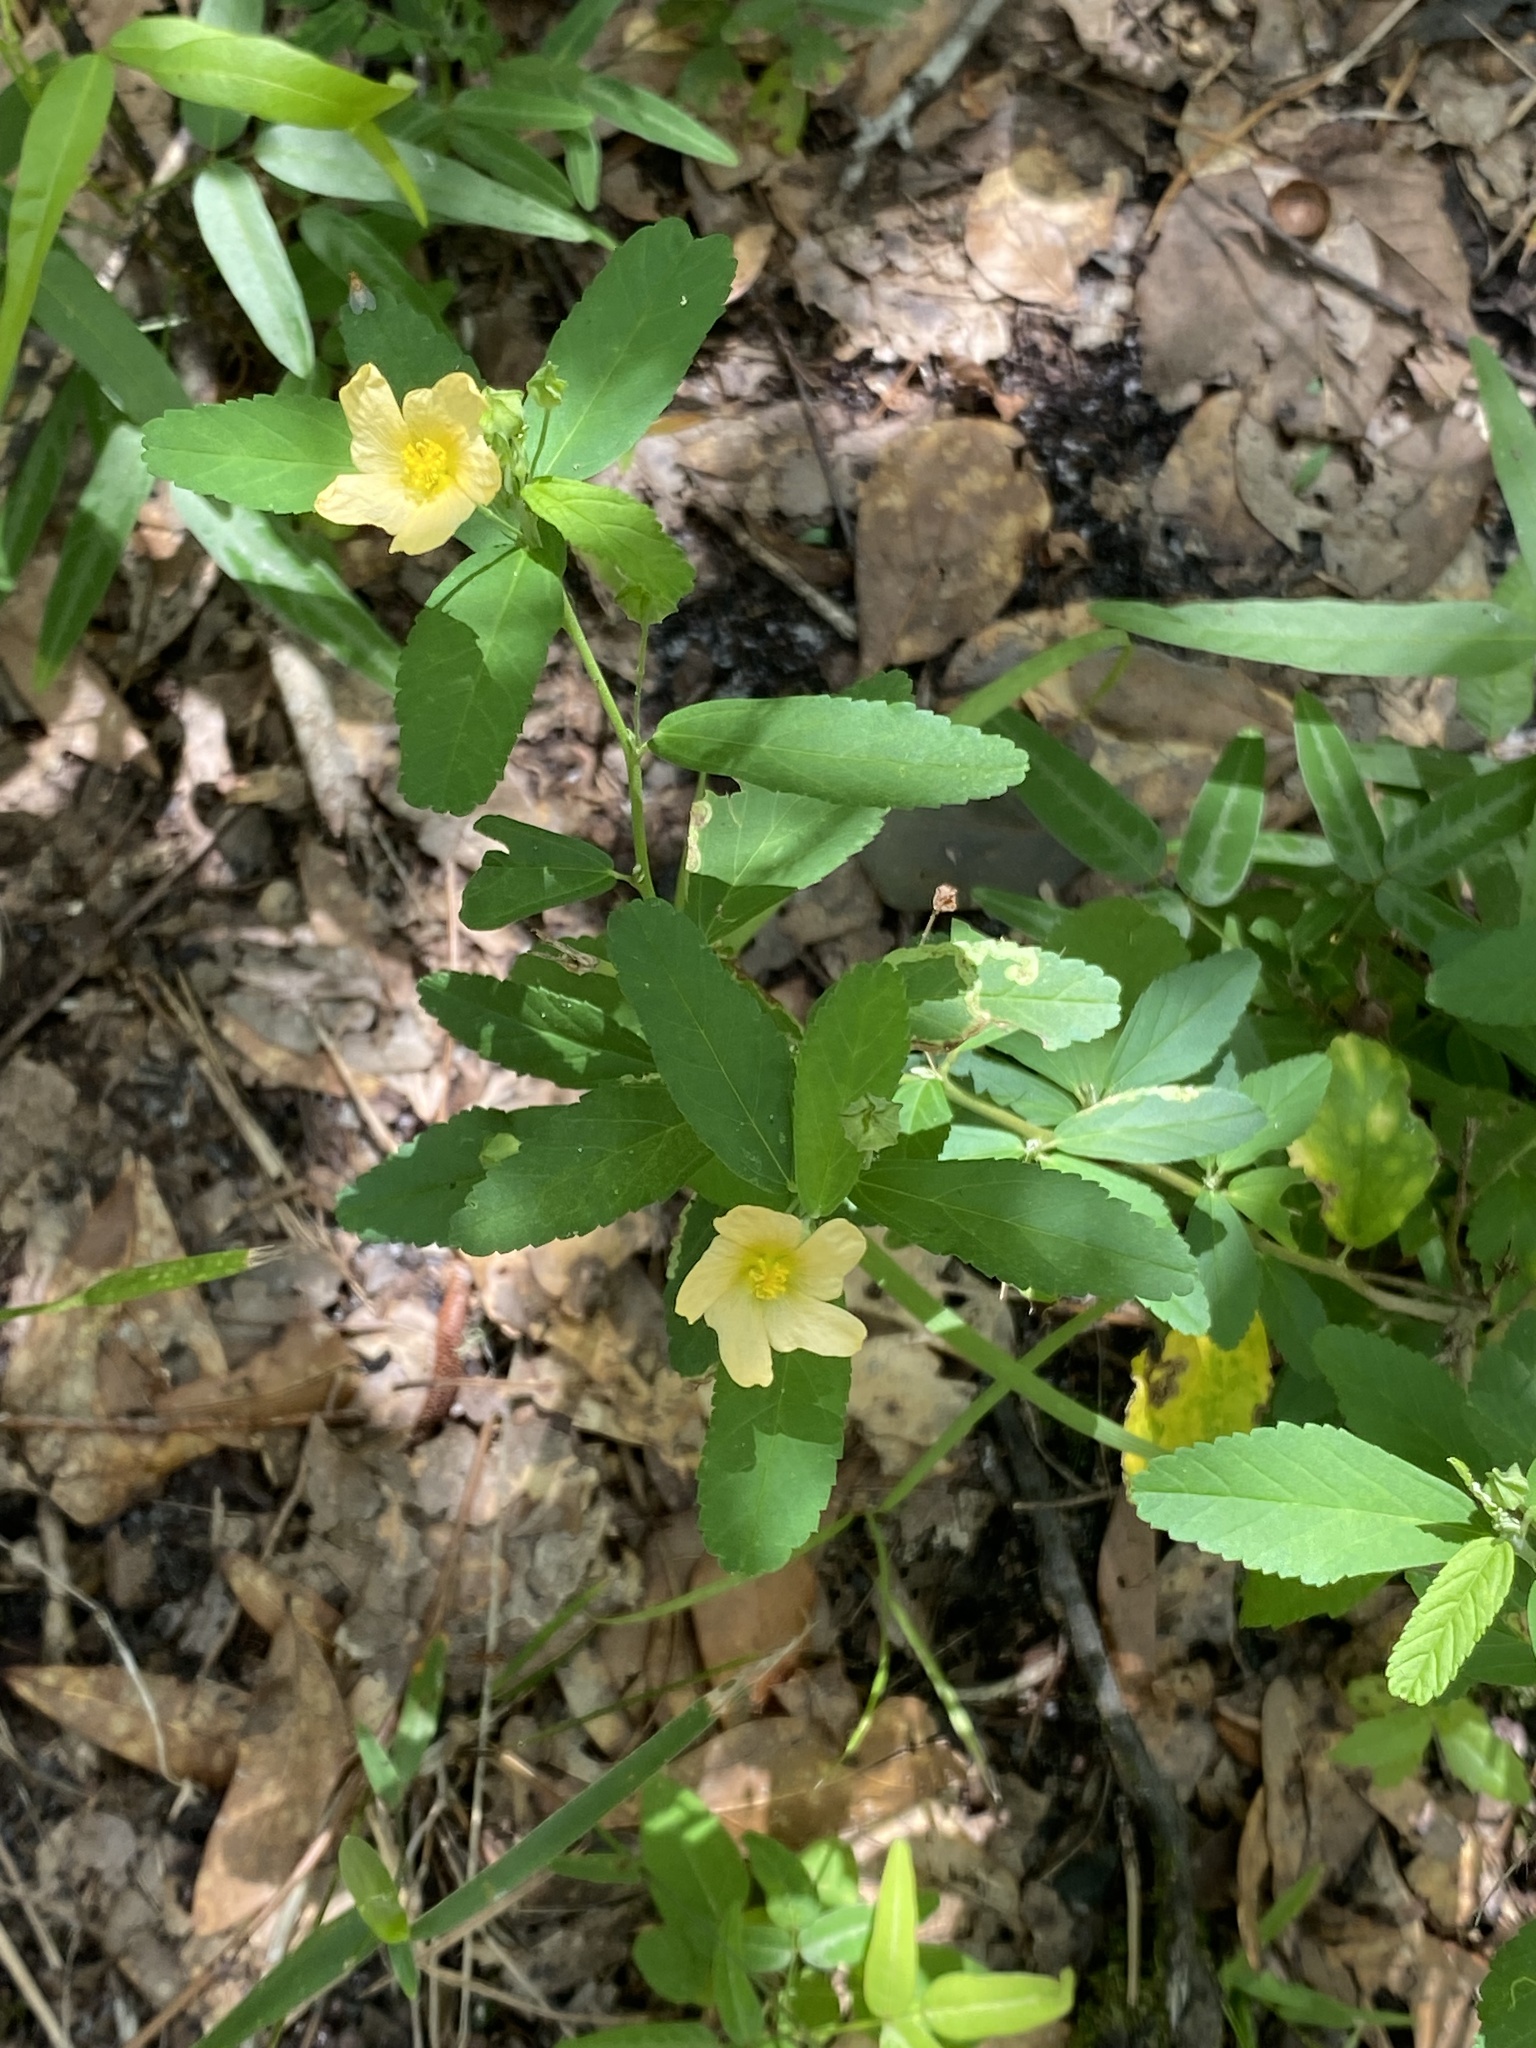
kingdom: Plantae
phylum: Tracheophyta
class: Magnoliopsida
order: Malvales
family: Malvaceae
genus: Sida
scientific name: Sida rhombifolia
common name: Queensland-hemp
